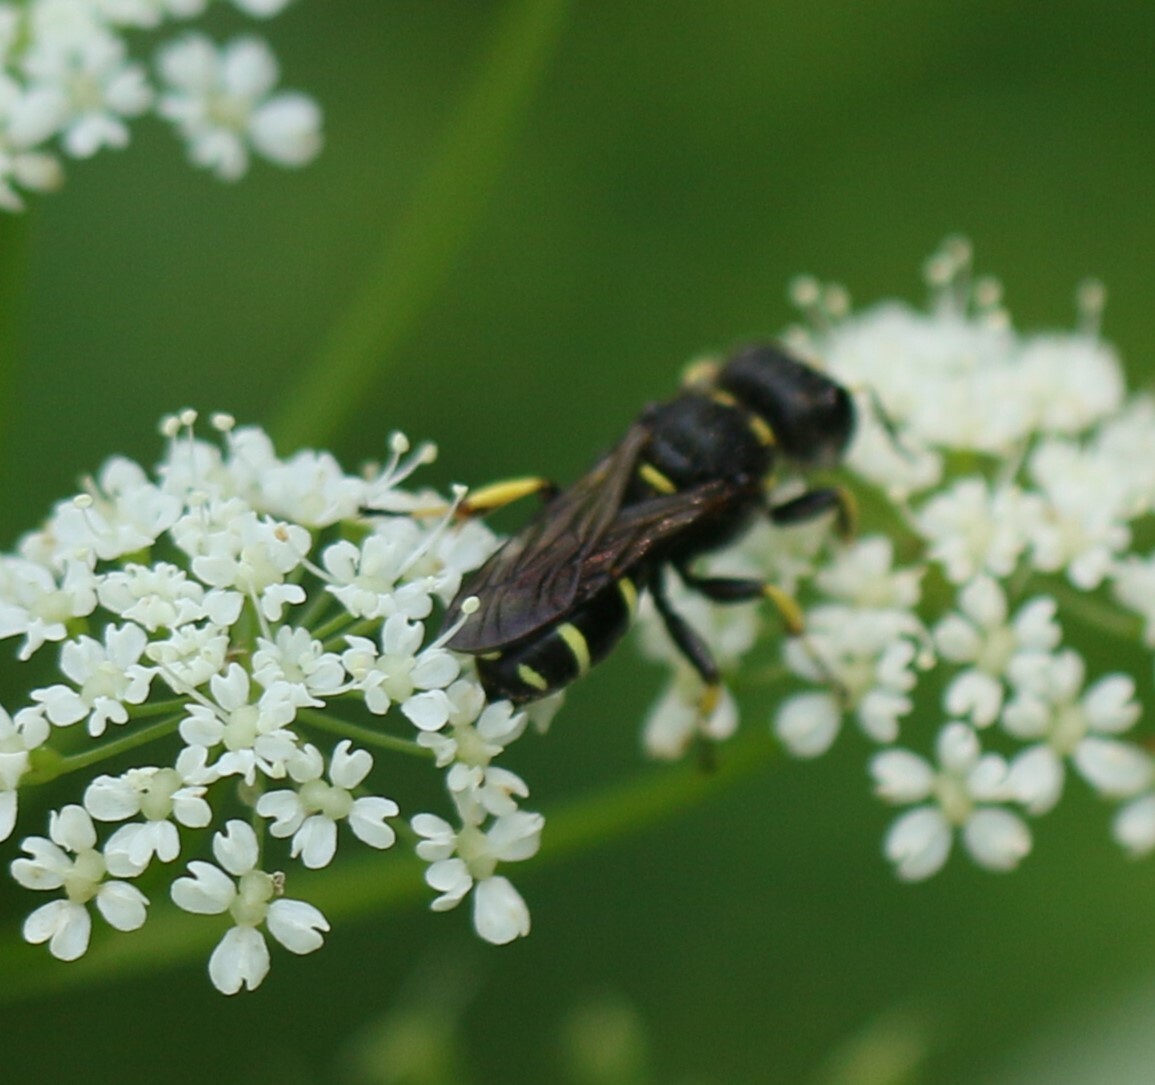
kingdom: Animalia
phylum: Arthropoda
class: Insecta
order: Hymenoptera
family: Crabronidae
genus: Ectemnius
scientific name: Ectemnius continuus
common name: Common ectemnius
